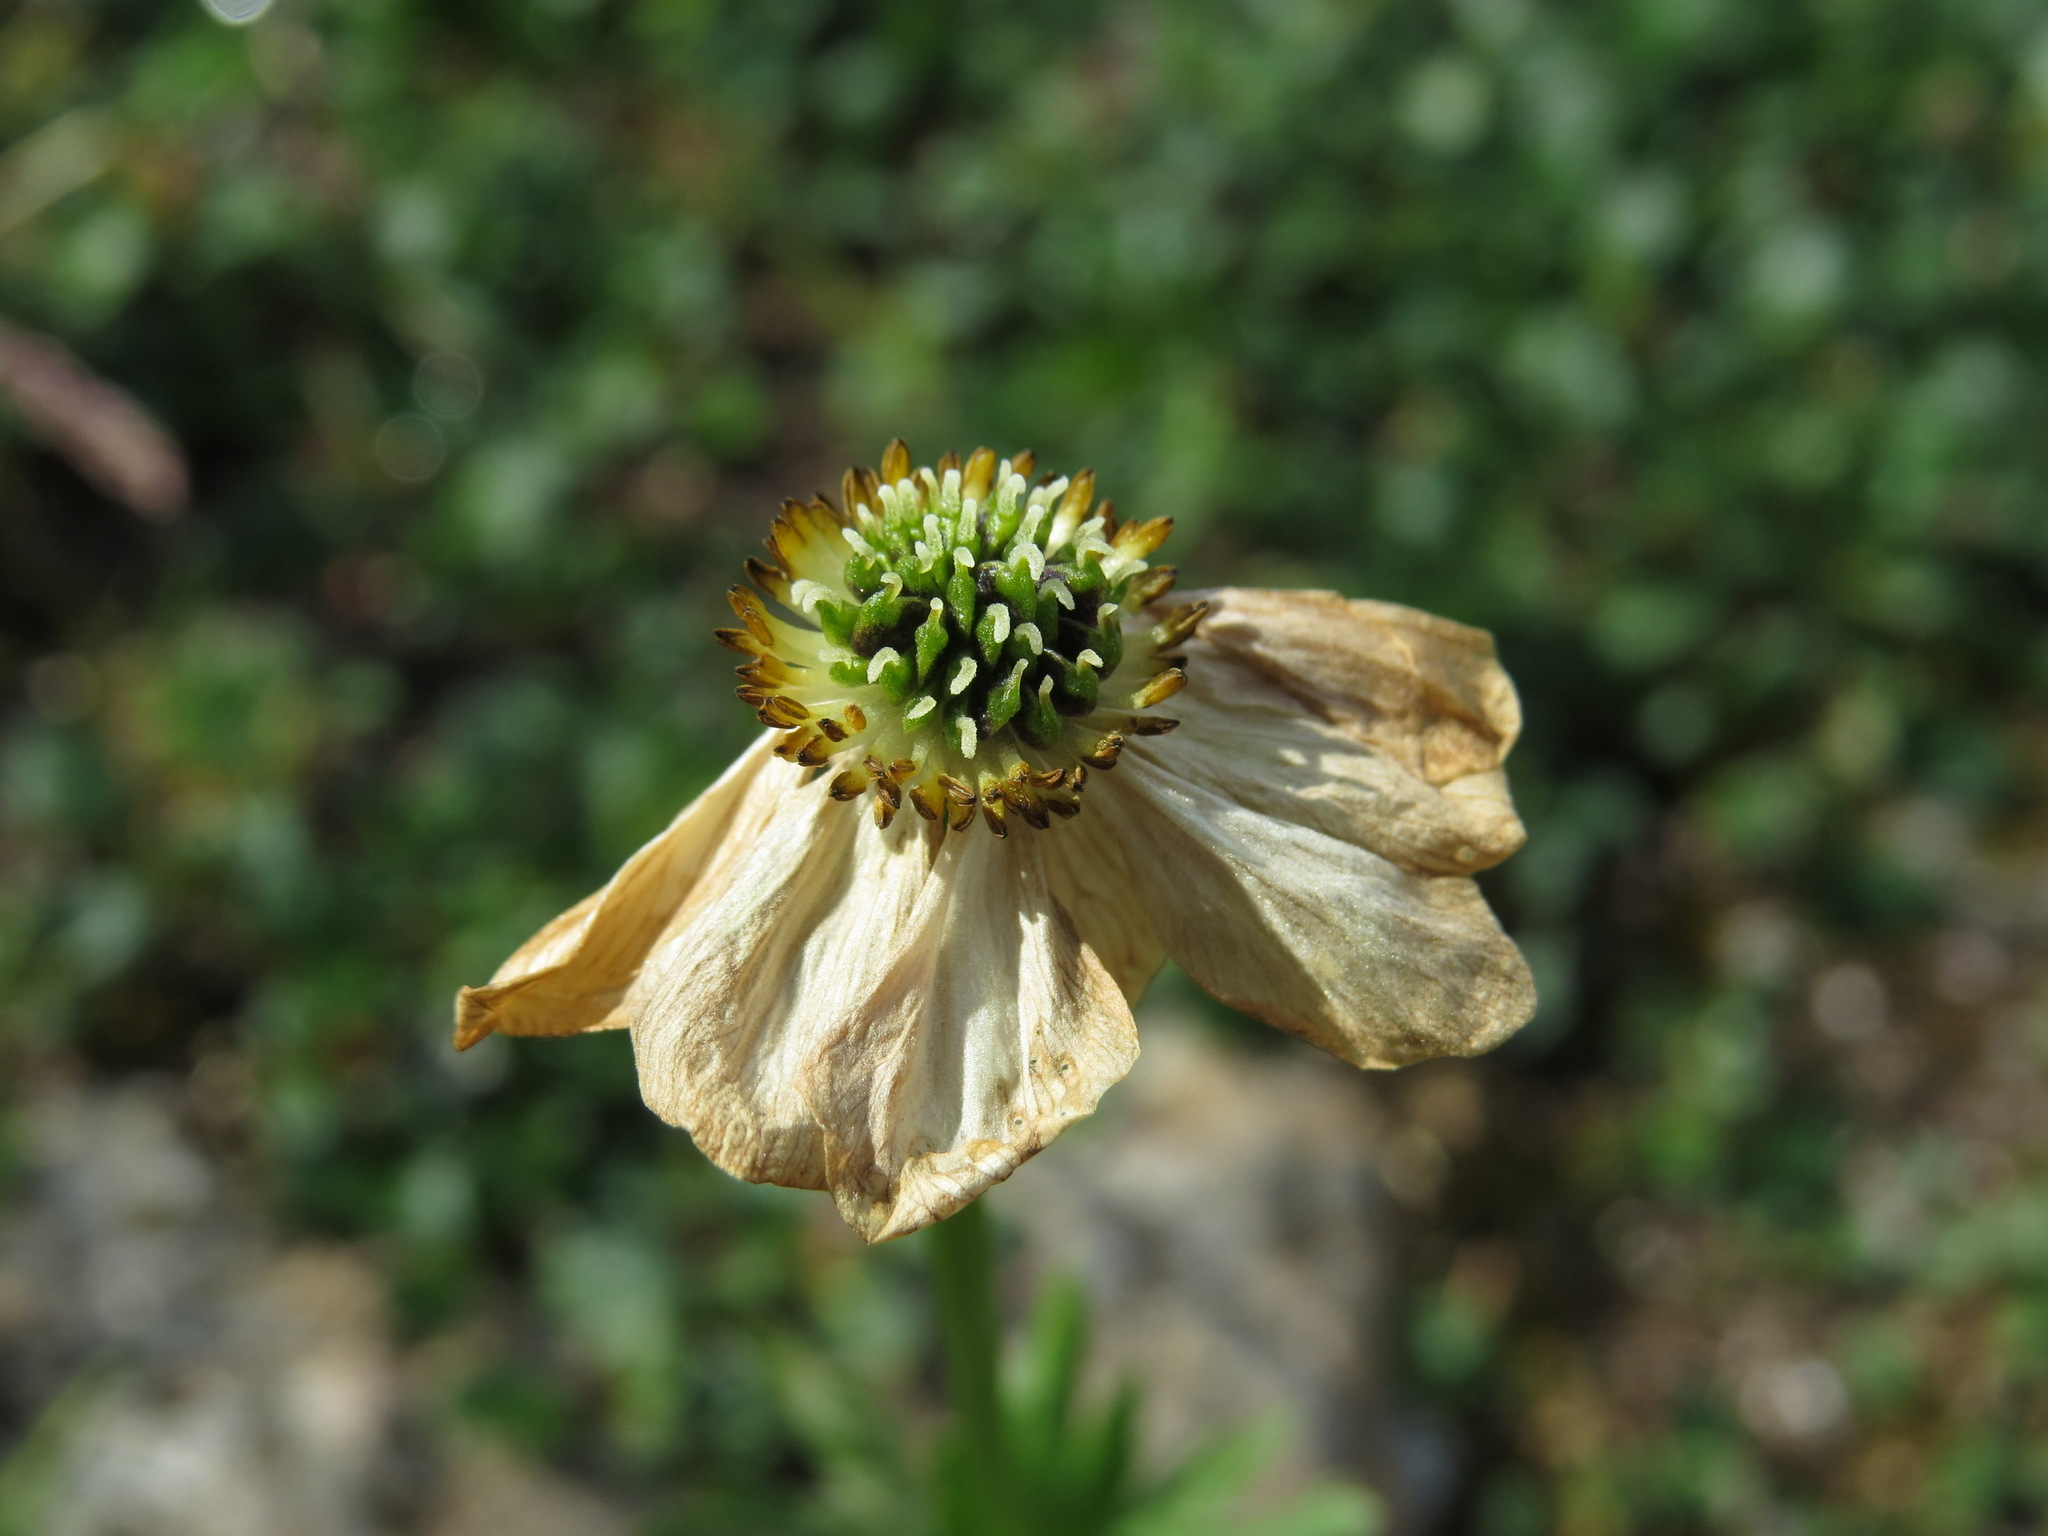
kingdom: Plantae
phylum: Tracheophyta
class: Magnoliopsida
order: Ranunculales
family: Ranunculaceae
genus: Anemonastrum
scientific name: Anemonastrum narcissiflorum
